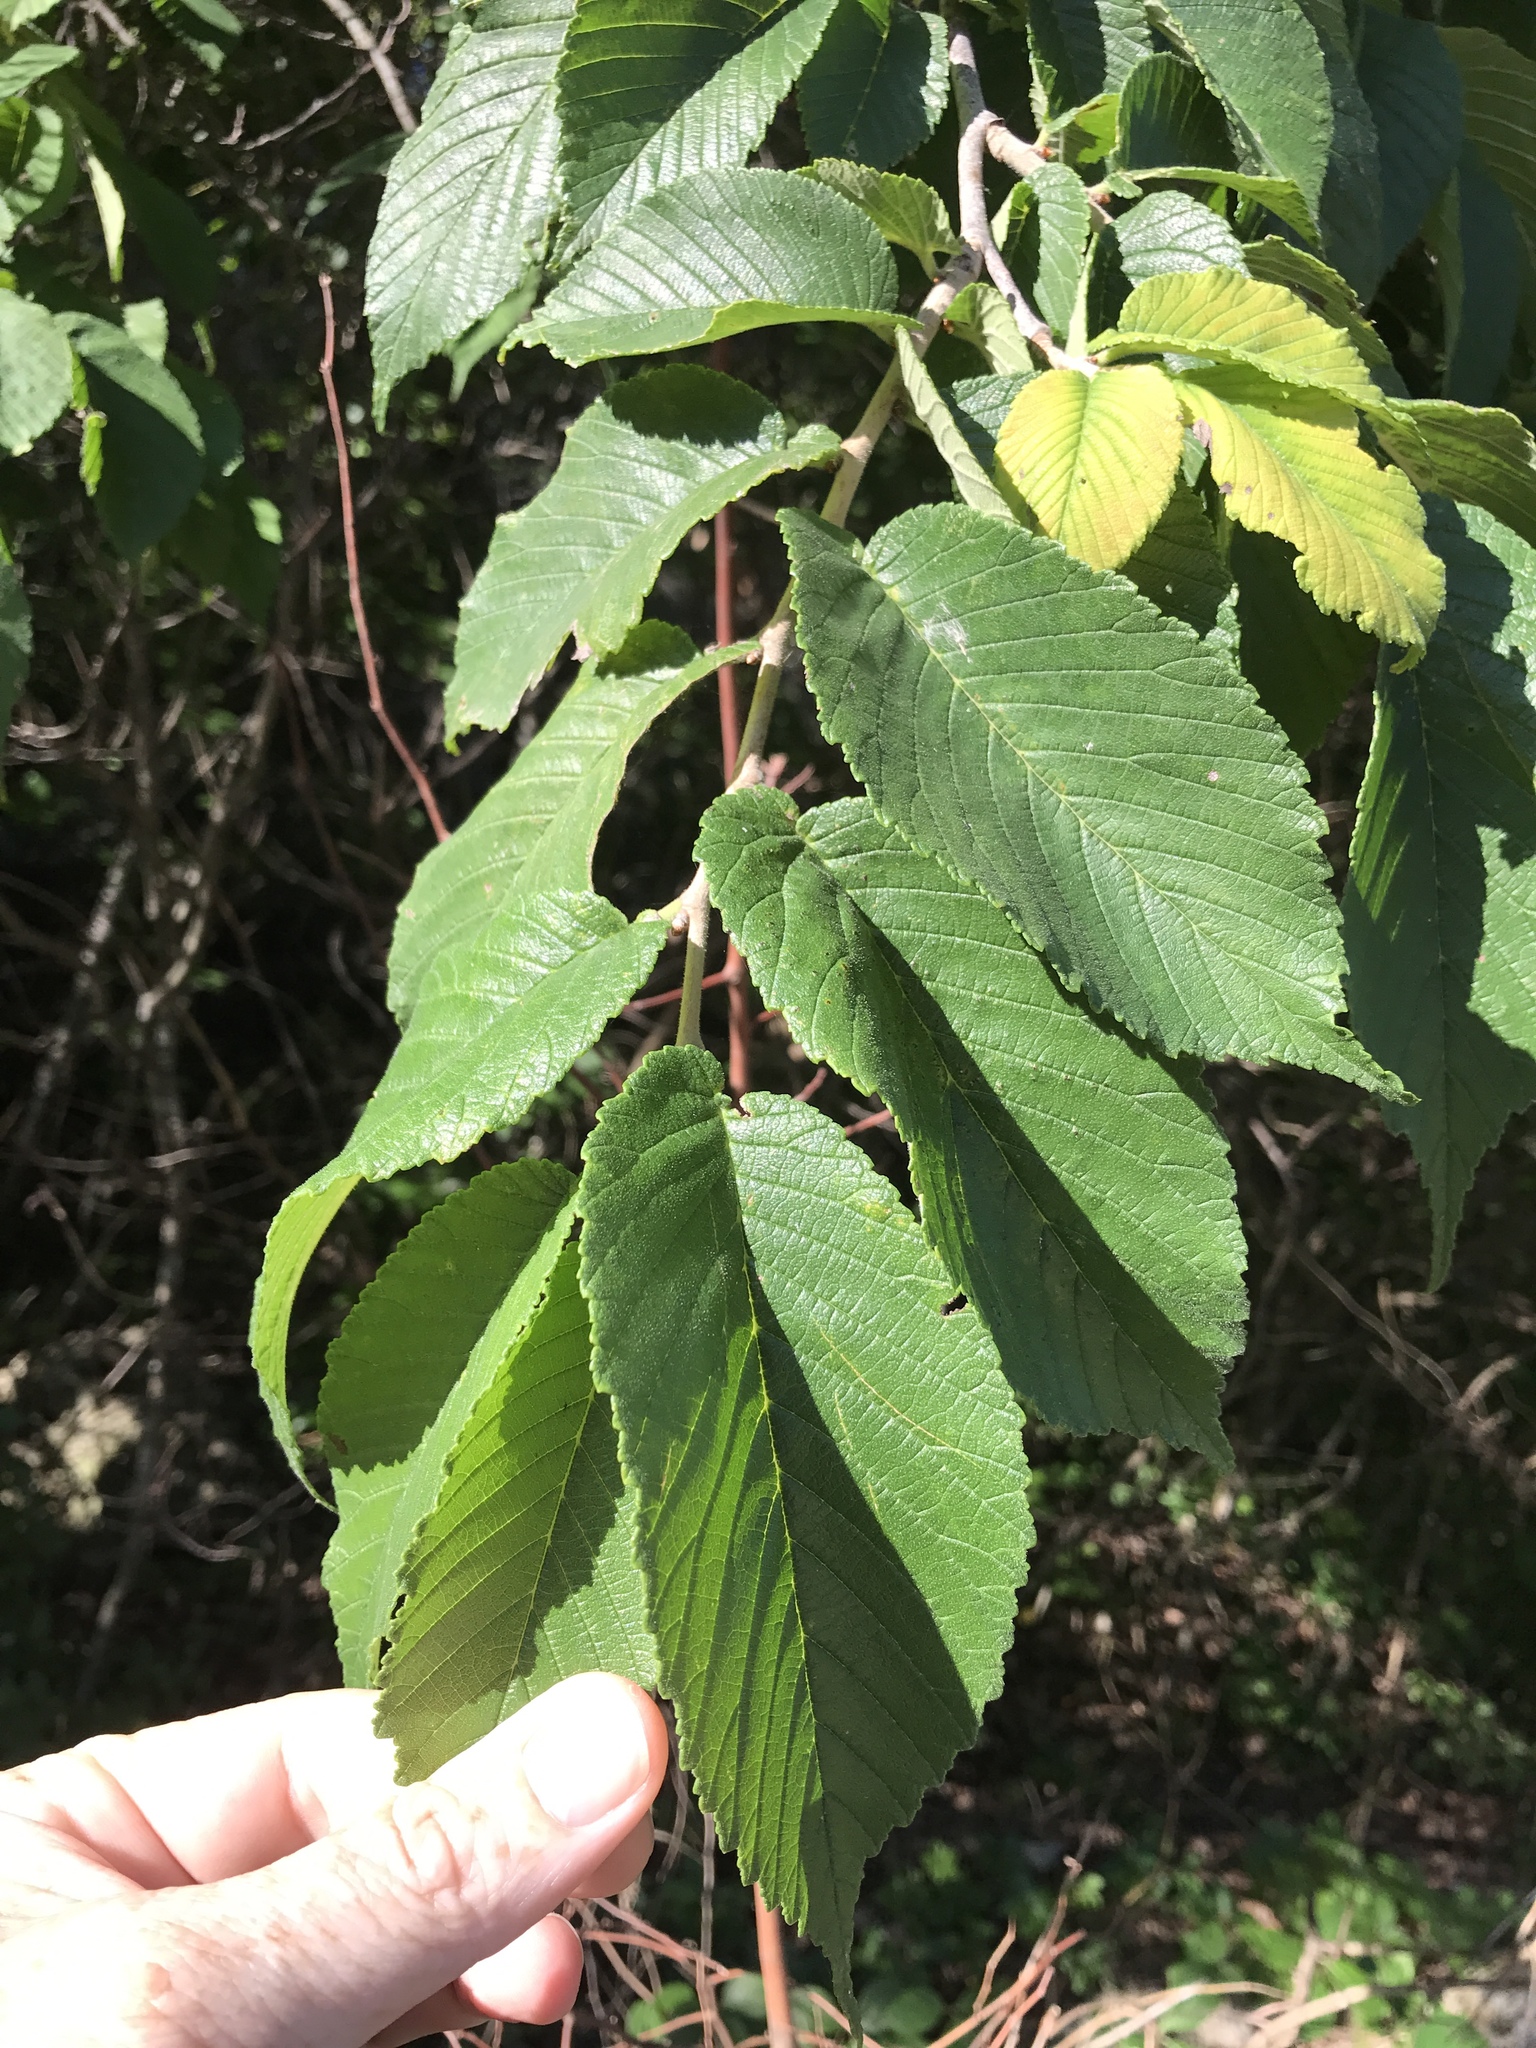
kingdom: Plantae
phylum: Tracheophyta
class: Magnoliopsida
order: Rosales
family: Ulmaceae
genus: Ulmus
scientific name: Ulmus rubra
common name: Slippery elm
